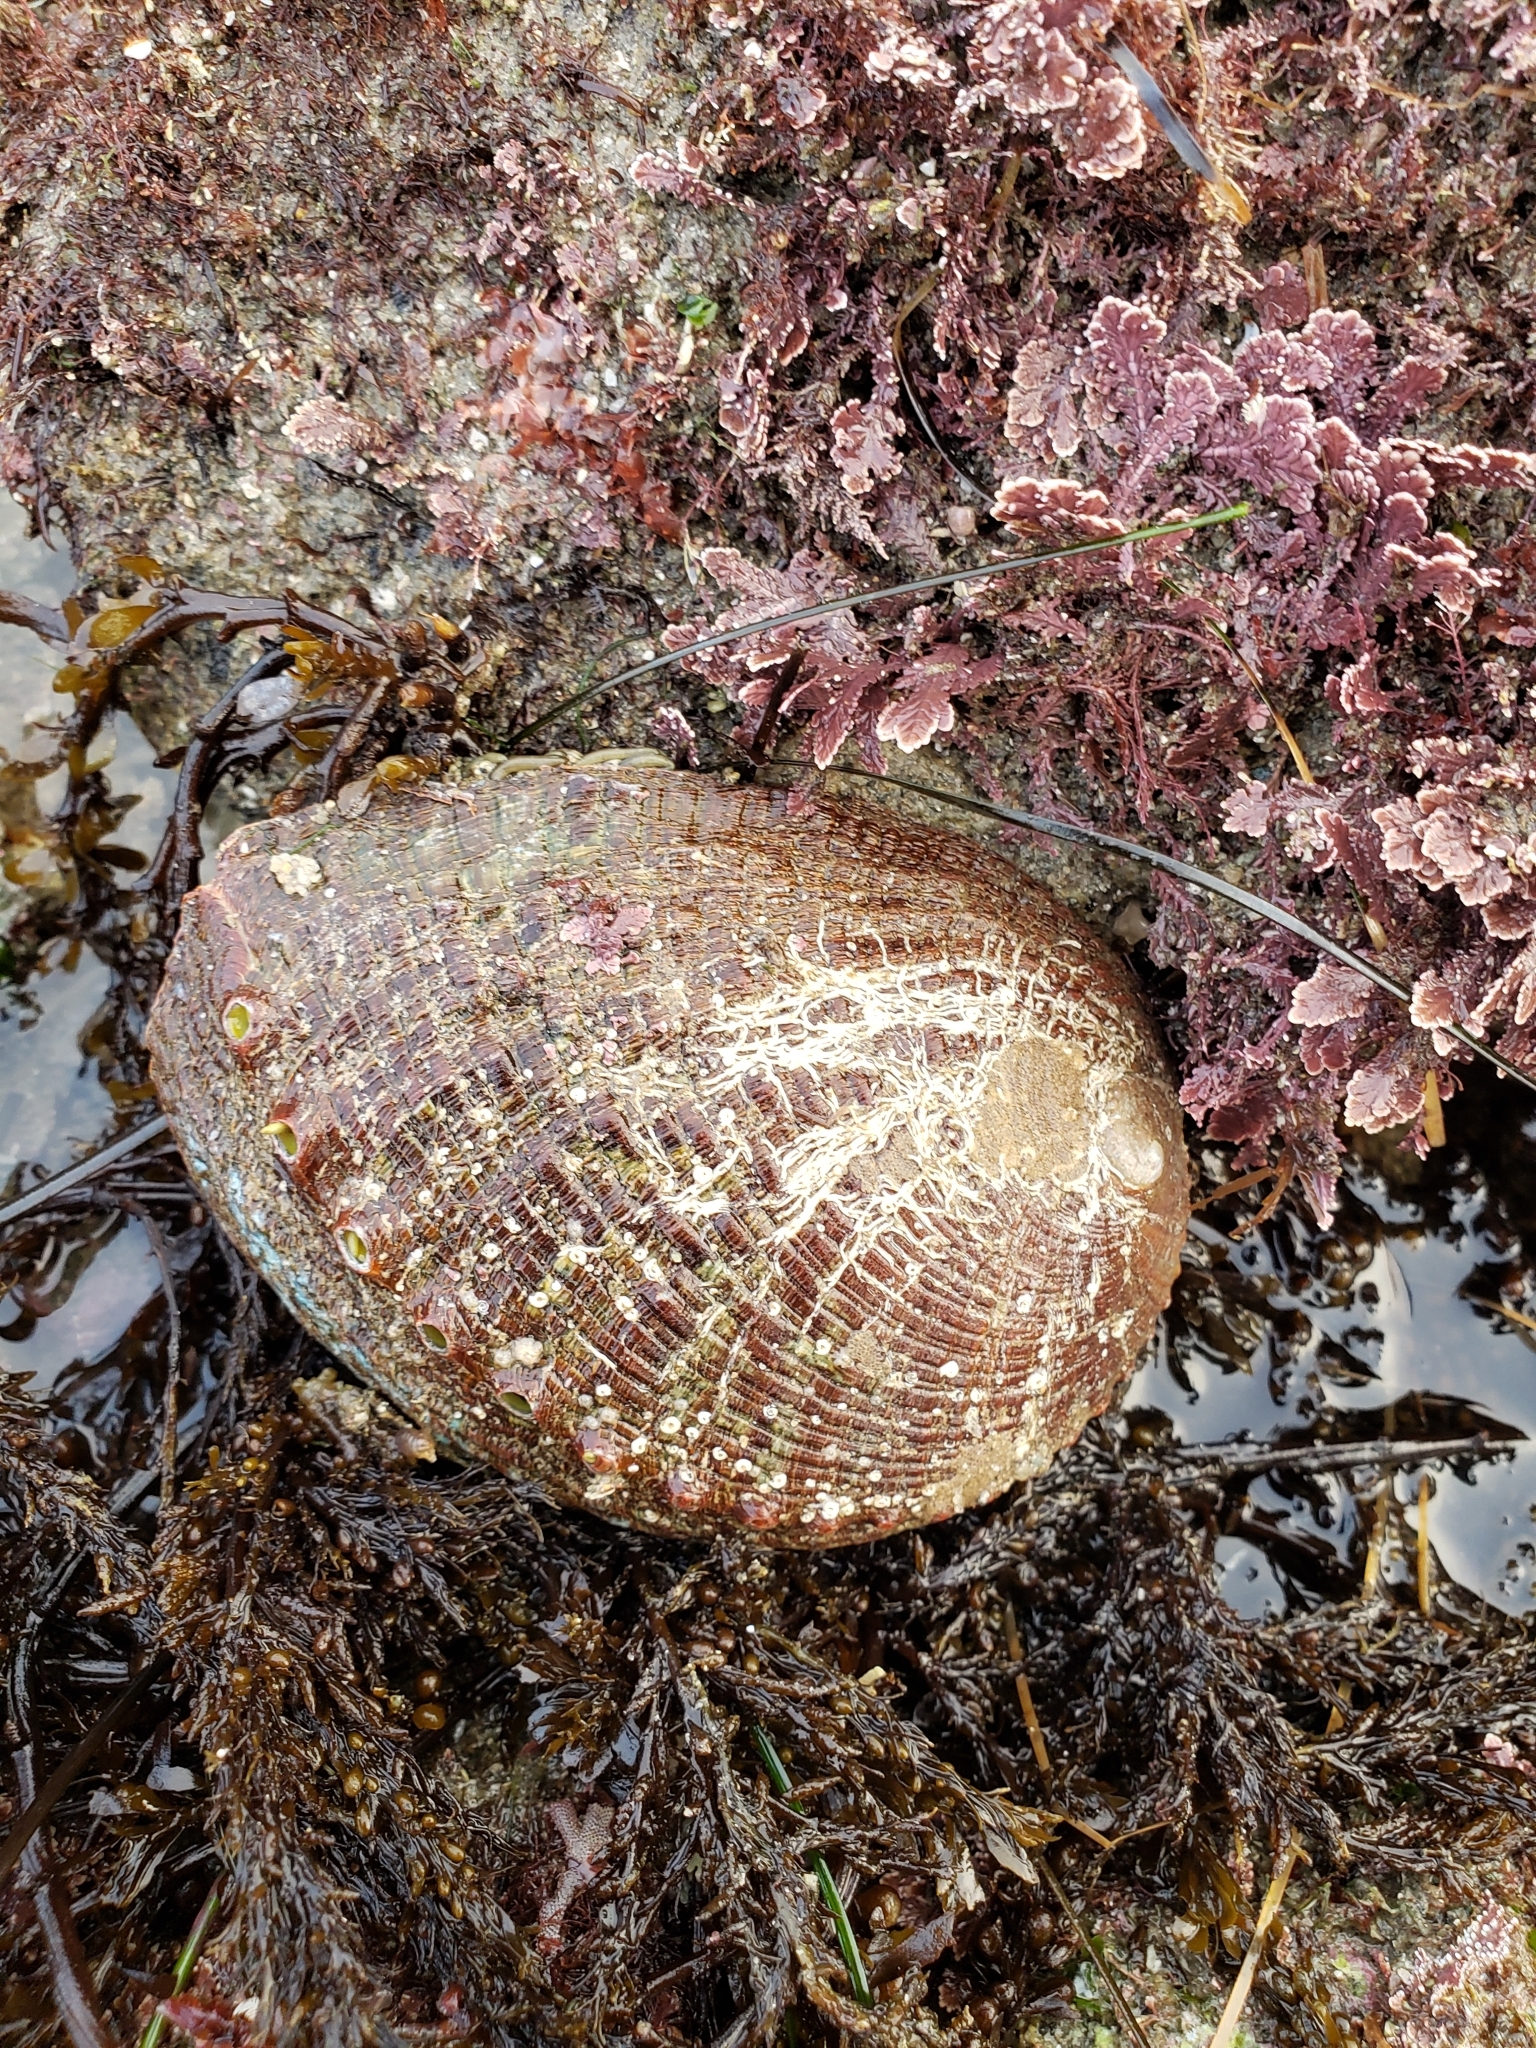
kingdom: Animalia
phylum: Mollusca
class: Gastropoda
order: Lepetellida
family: Haliotidae
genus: Haliotis
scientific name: Haliotis fulgens
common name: Green abalone
